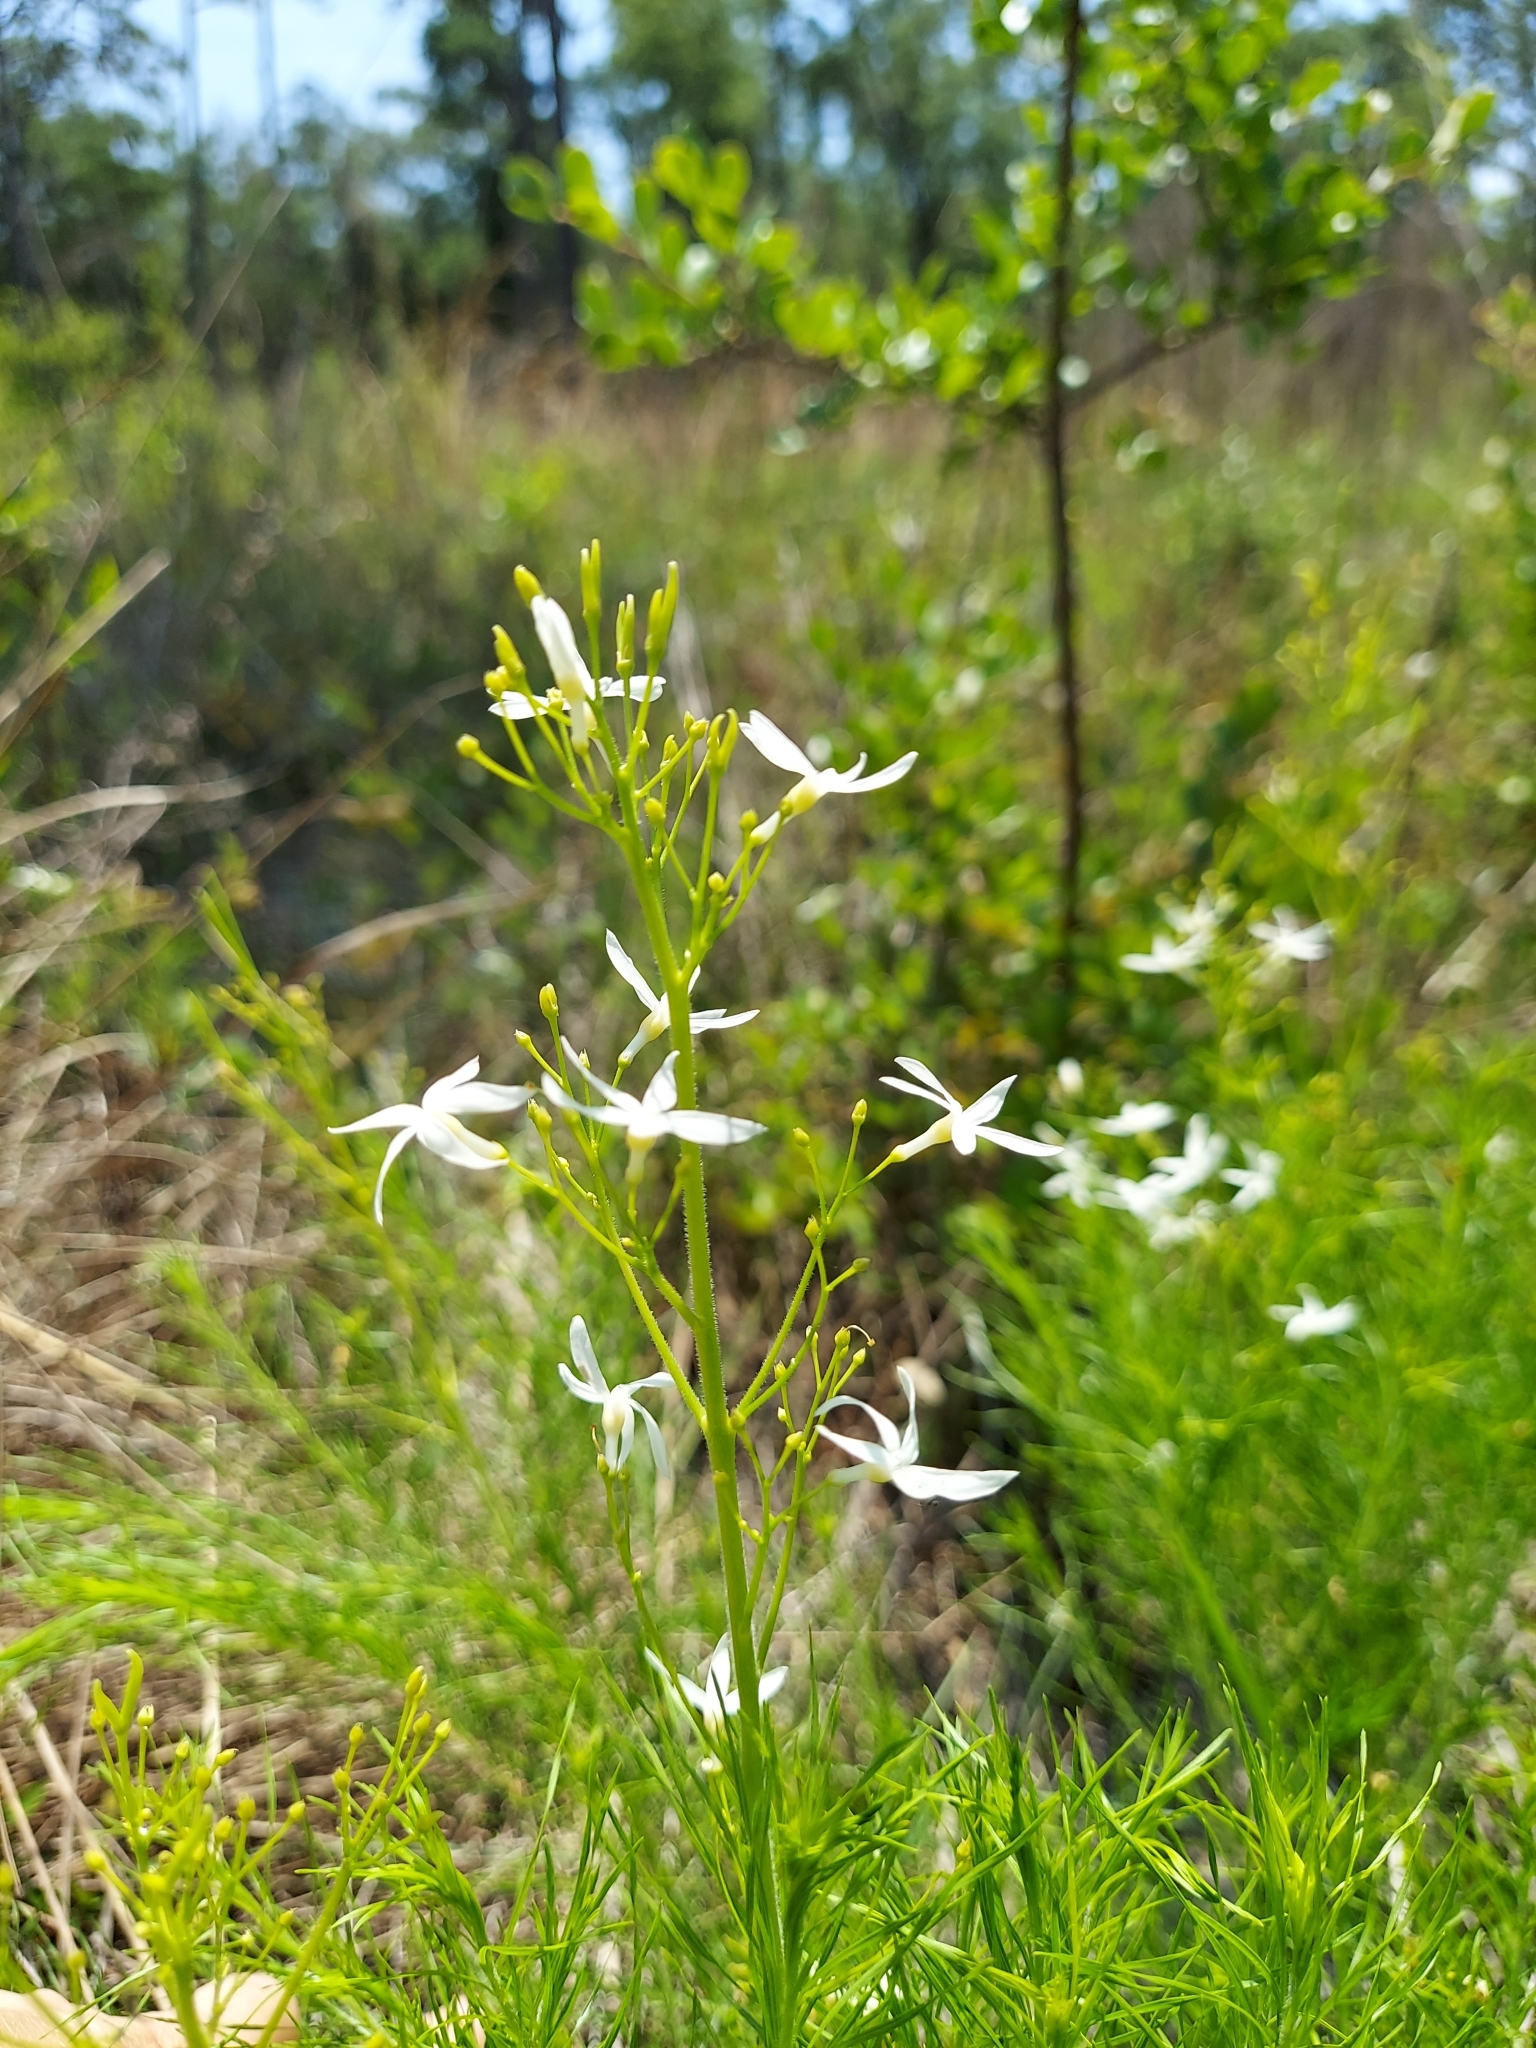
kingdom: Plantae
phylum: Tracheophyta
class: Magnoliopsida
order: Gentianales
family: Apocynaceae
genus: Amsonia
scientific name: Amsonia ciliata
